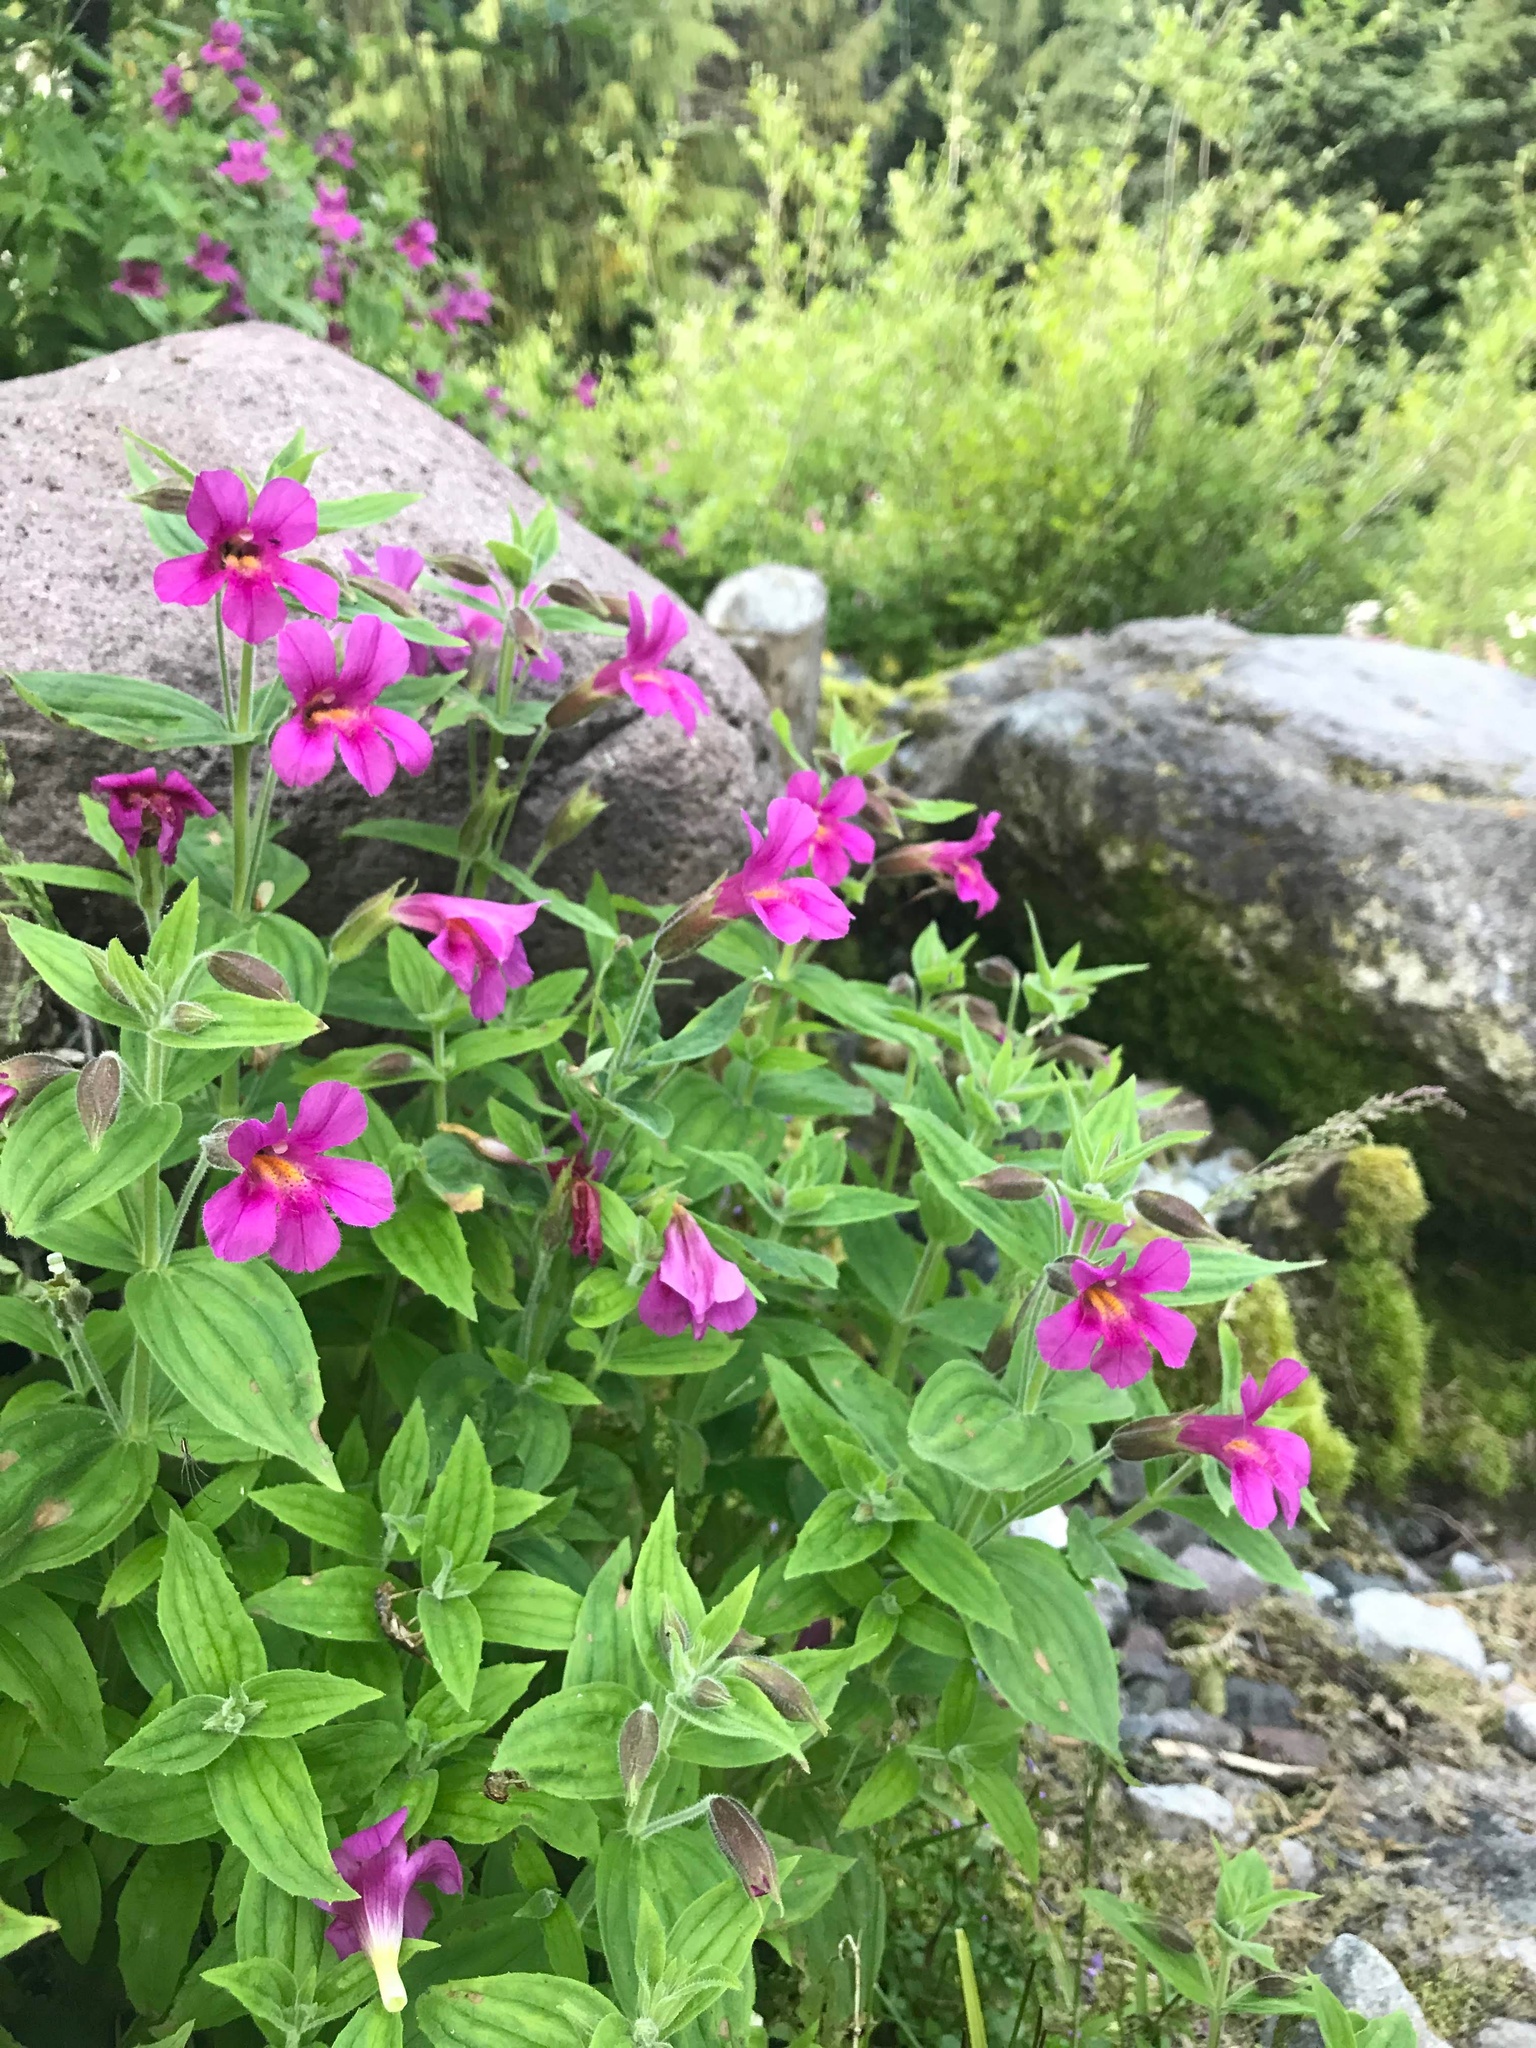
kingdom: Plantae
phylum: Tracheophyta
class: Magnoliopsida
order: Lamiales
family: Phrymaceae
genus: Erythranthe
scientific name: Erythranthe lewisii
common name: Lewis's monkey-flower
